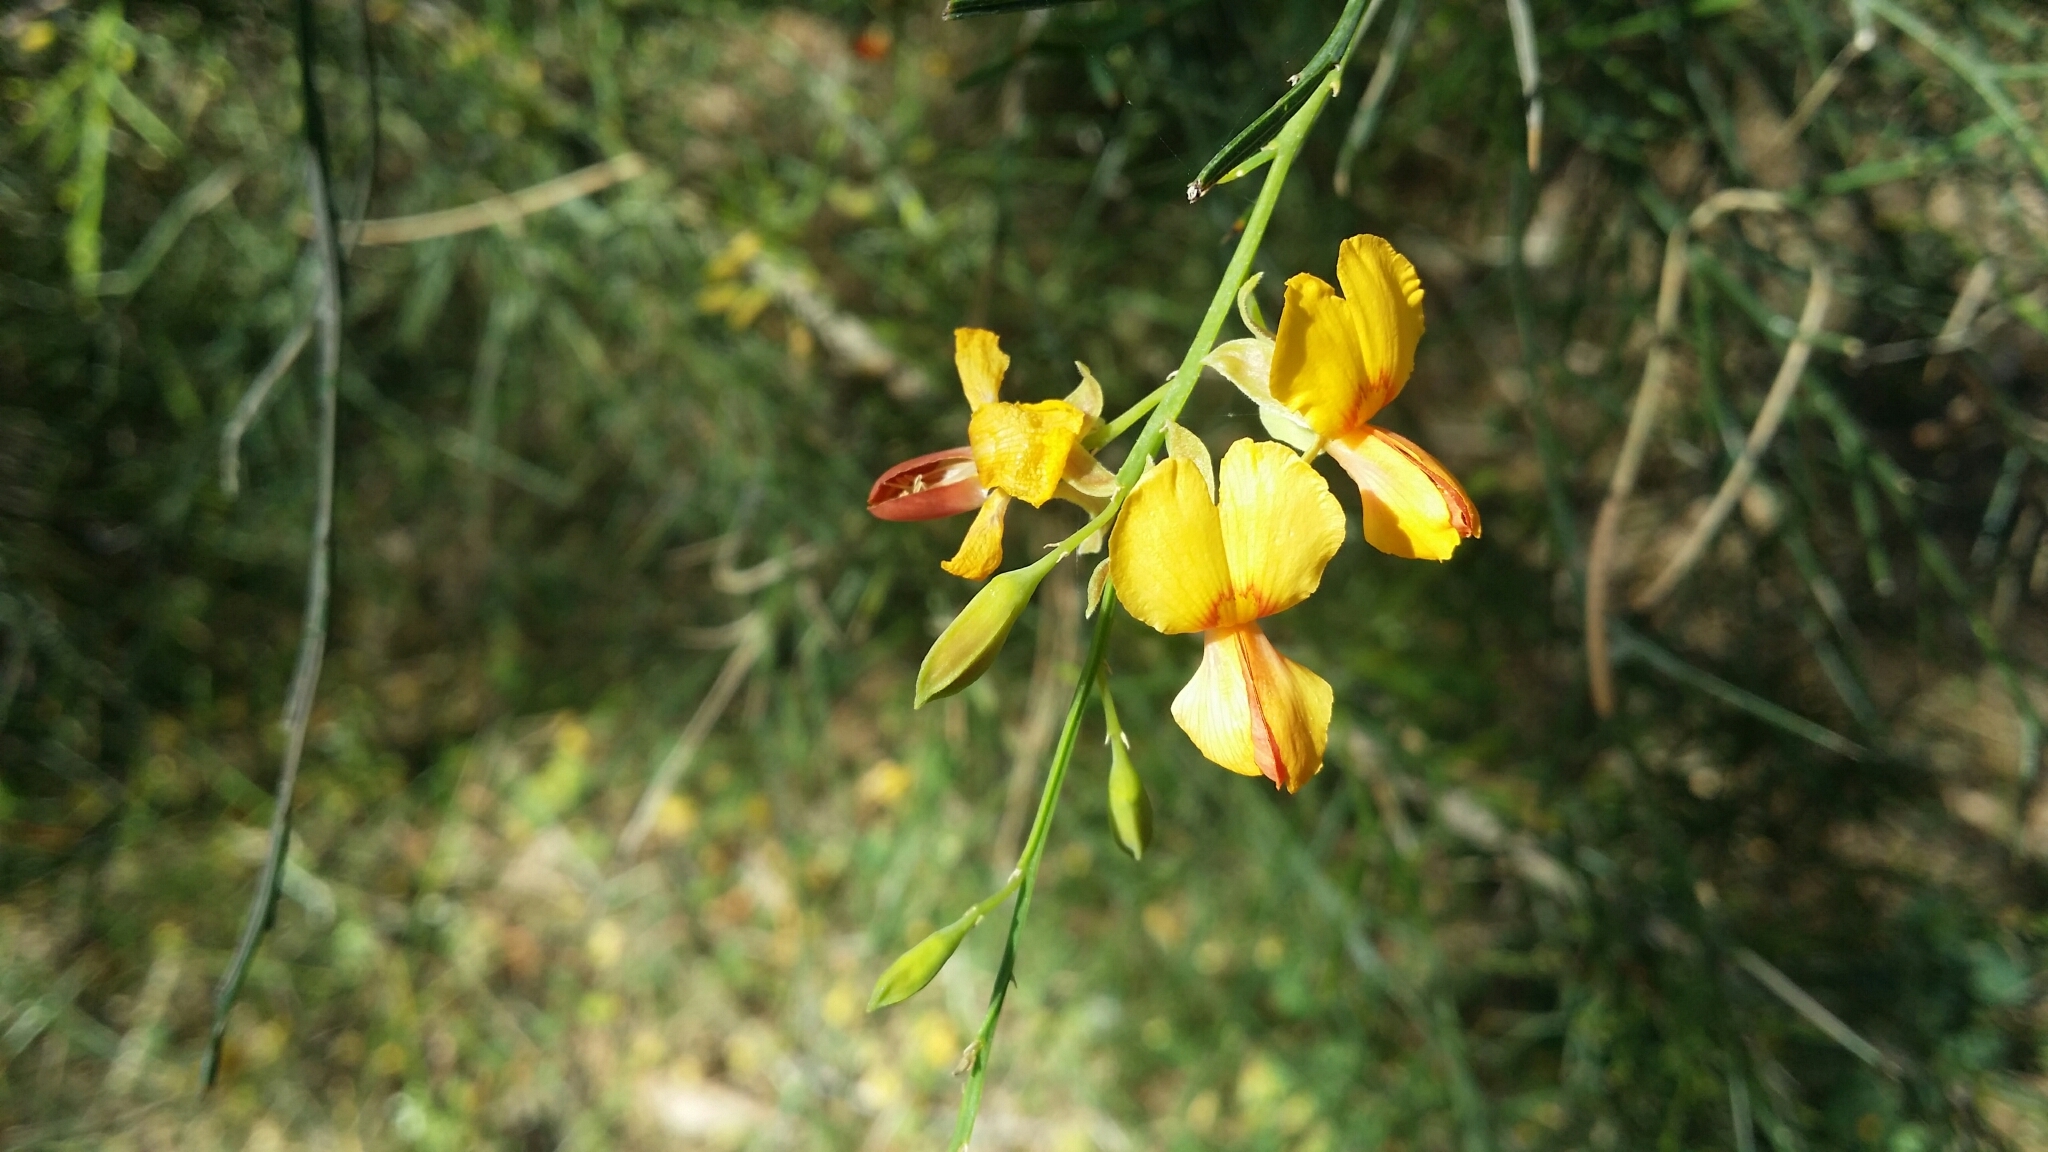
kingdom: Plantae
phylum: Tracheophyta
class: Magnoliopsida
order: Fabales
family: Fabaceae
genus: Jacksonia
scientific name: Jacksonia sternbergiana
